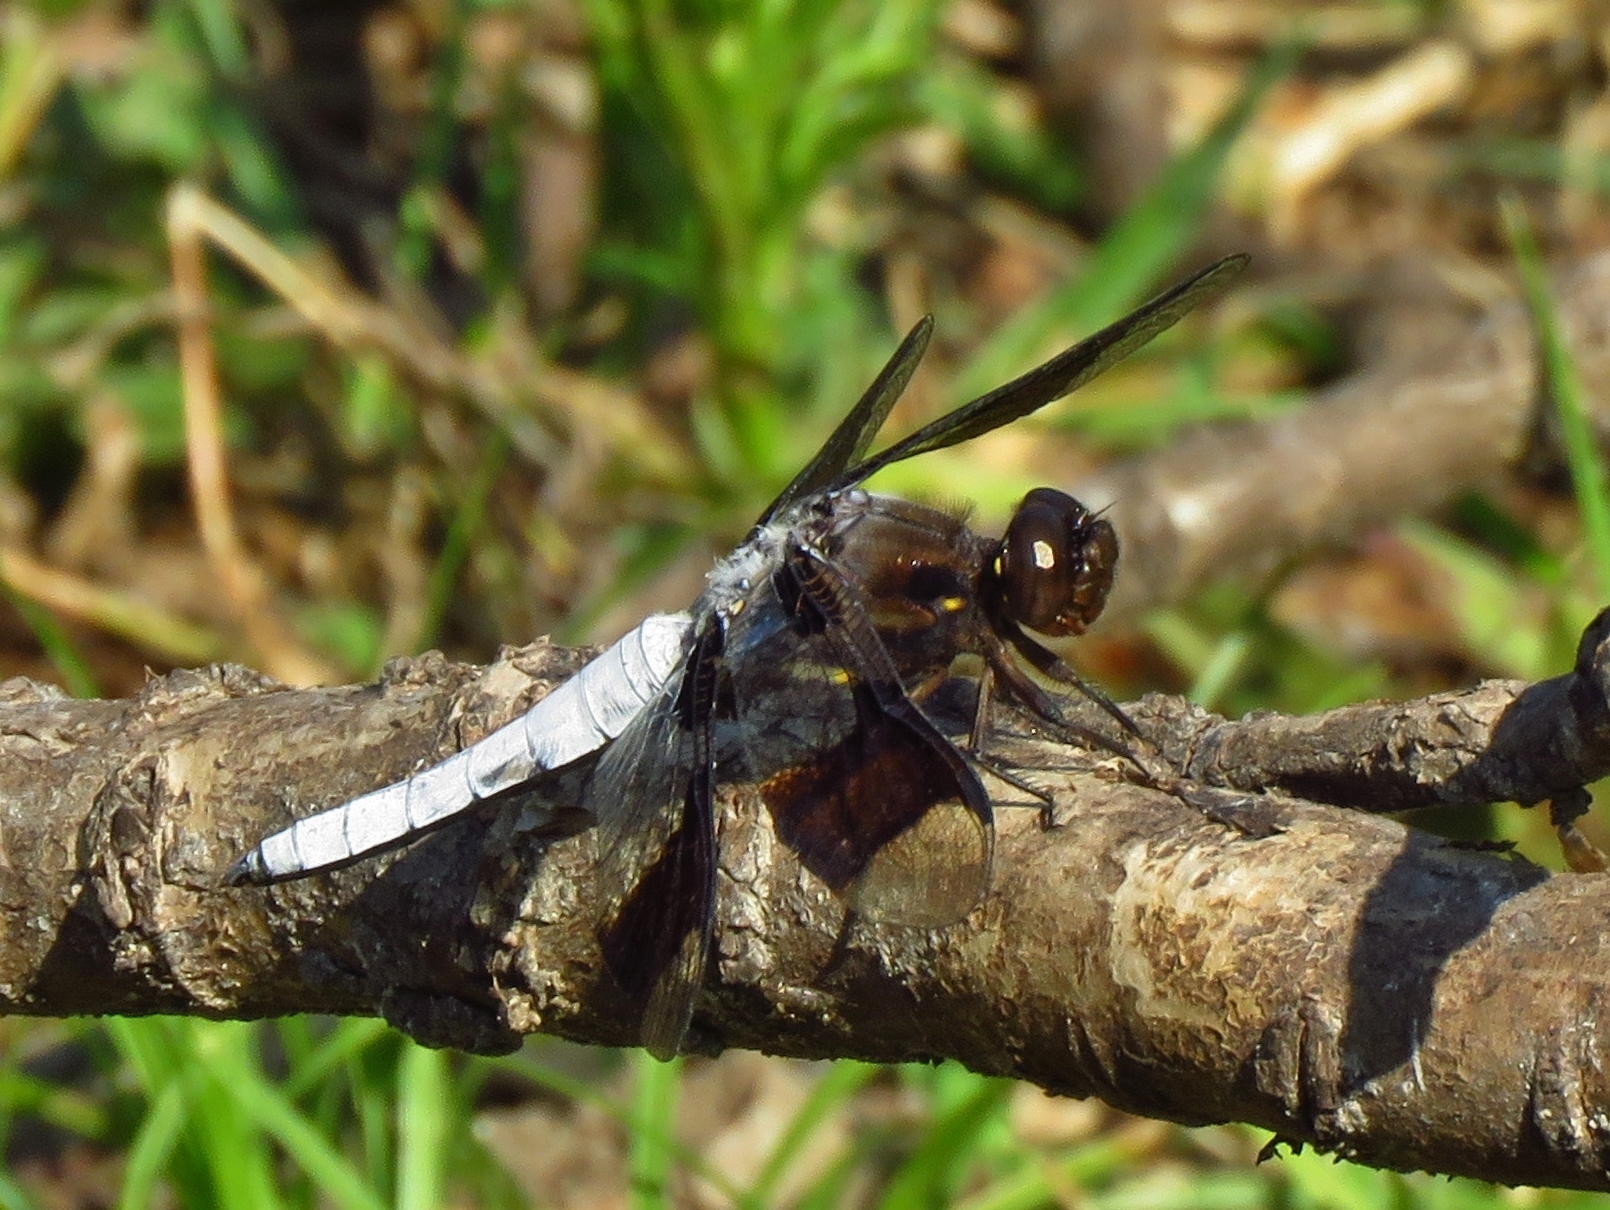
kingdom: Animalia
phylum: Arthropoda
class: Insecta
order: Odonata
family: Libellulidae
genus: Plathemis
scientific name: Plathemis lydia
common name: Common whitetail
